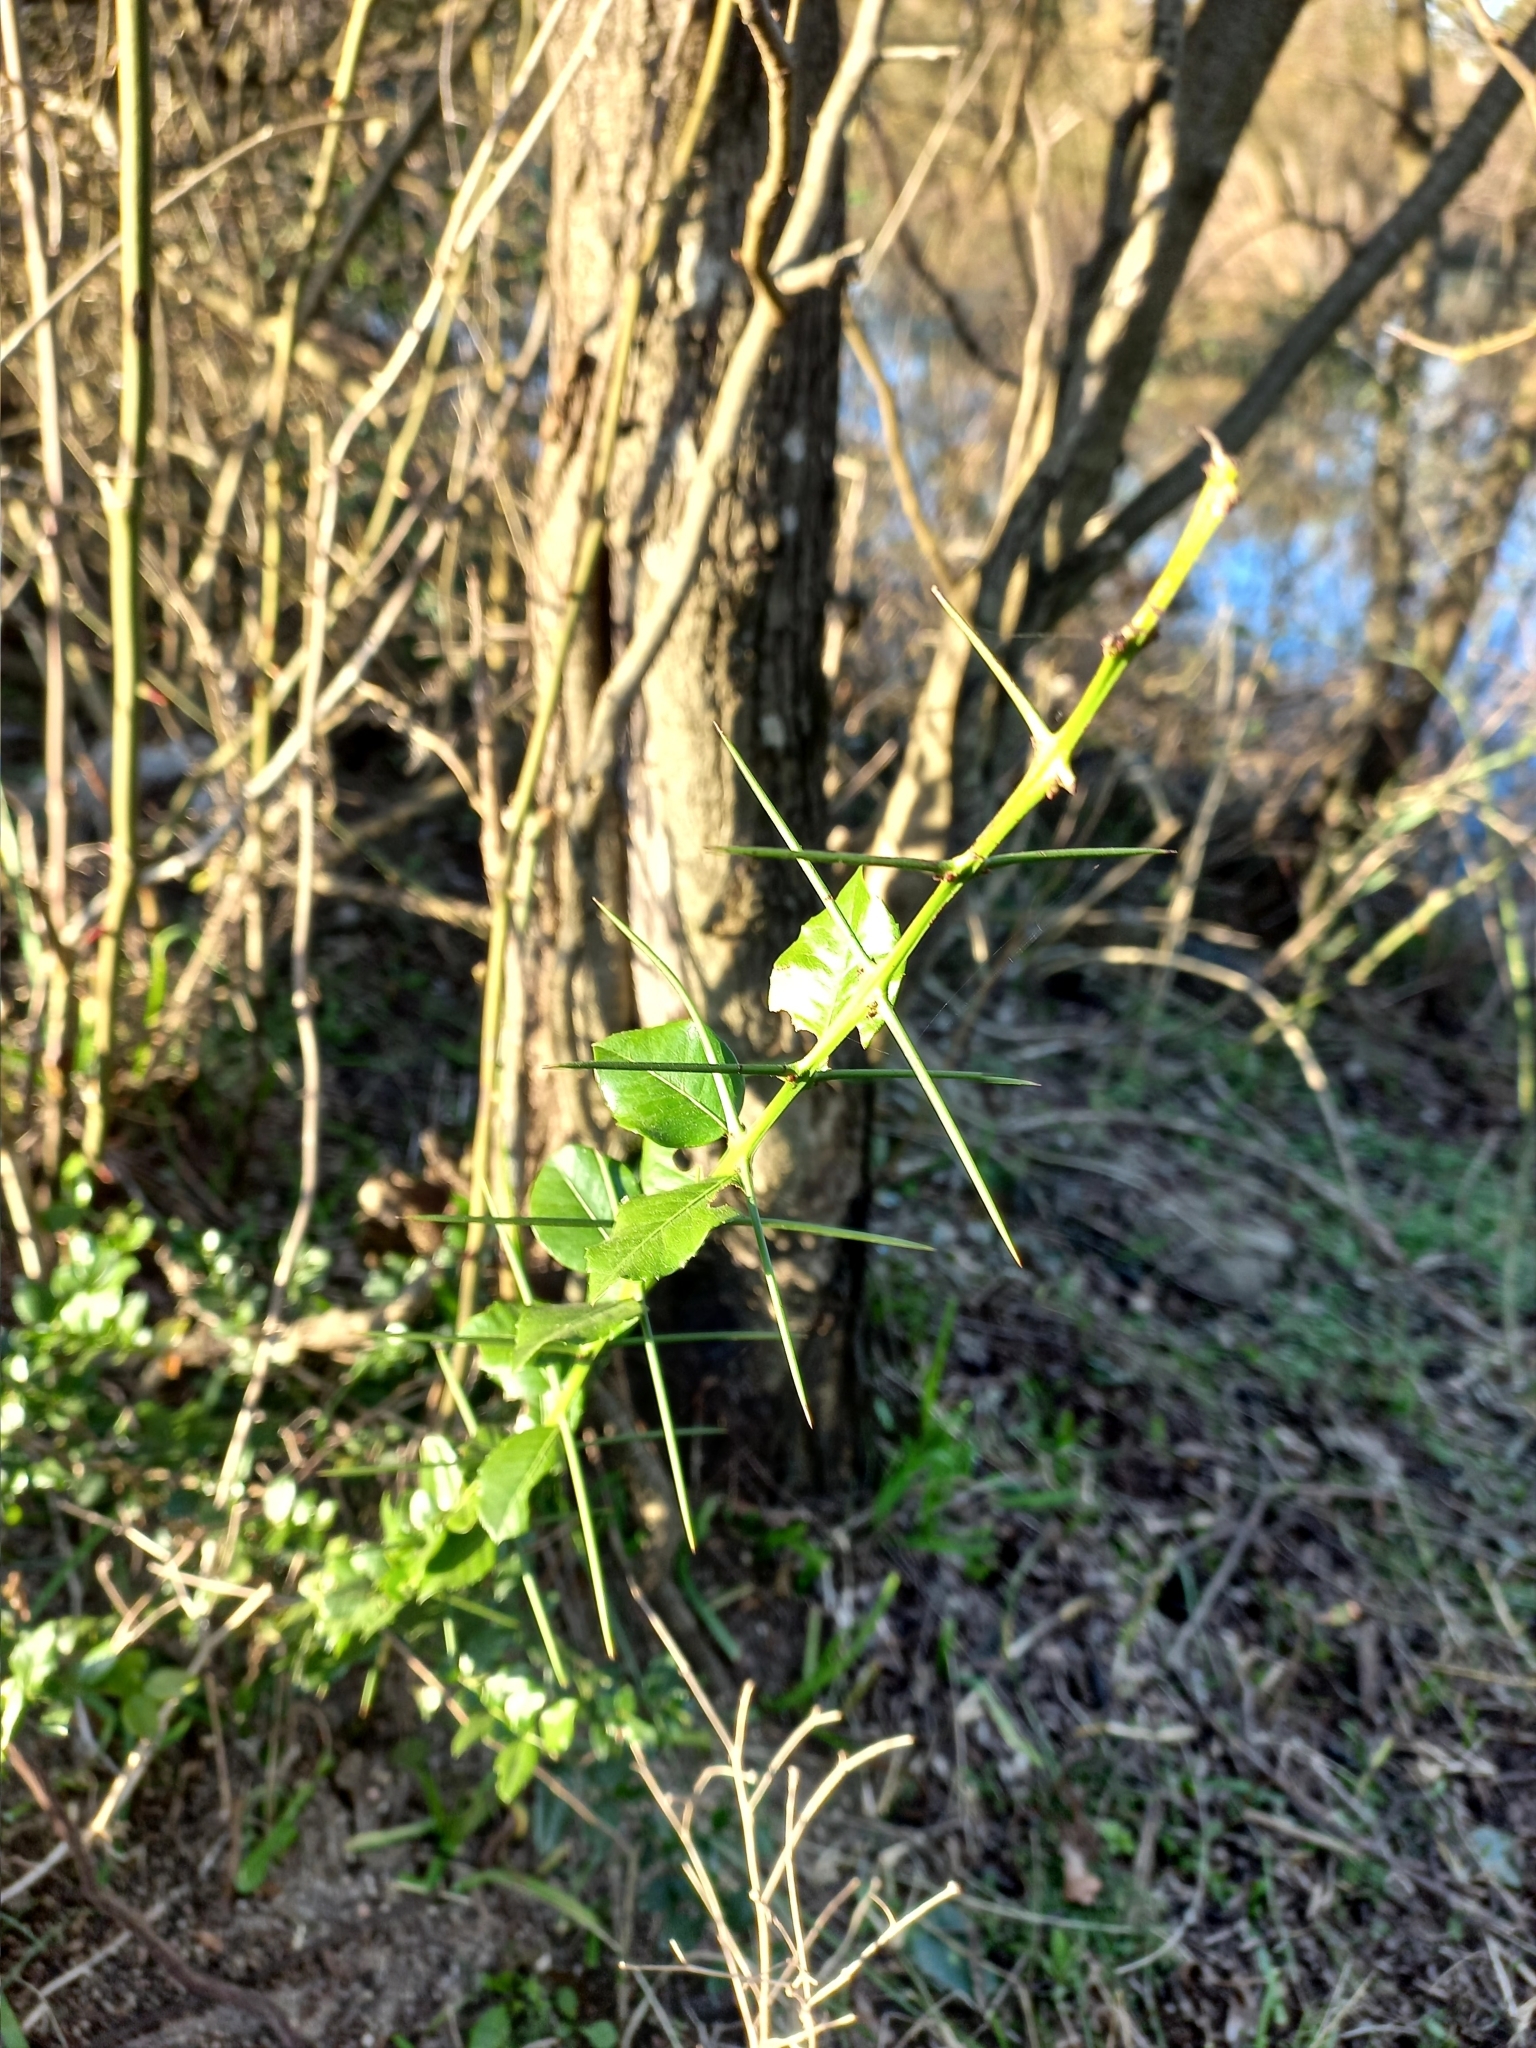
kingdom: Plantae
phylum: Tracheophyta
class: Magnoliopsida
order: Rosales
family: Rhamnaceae
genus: Scutia
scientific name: Scutia buxifolia
